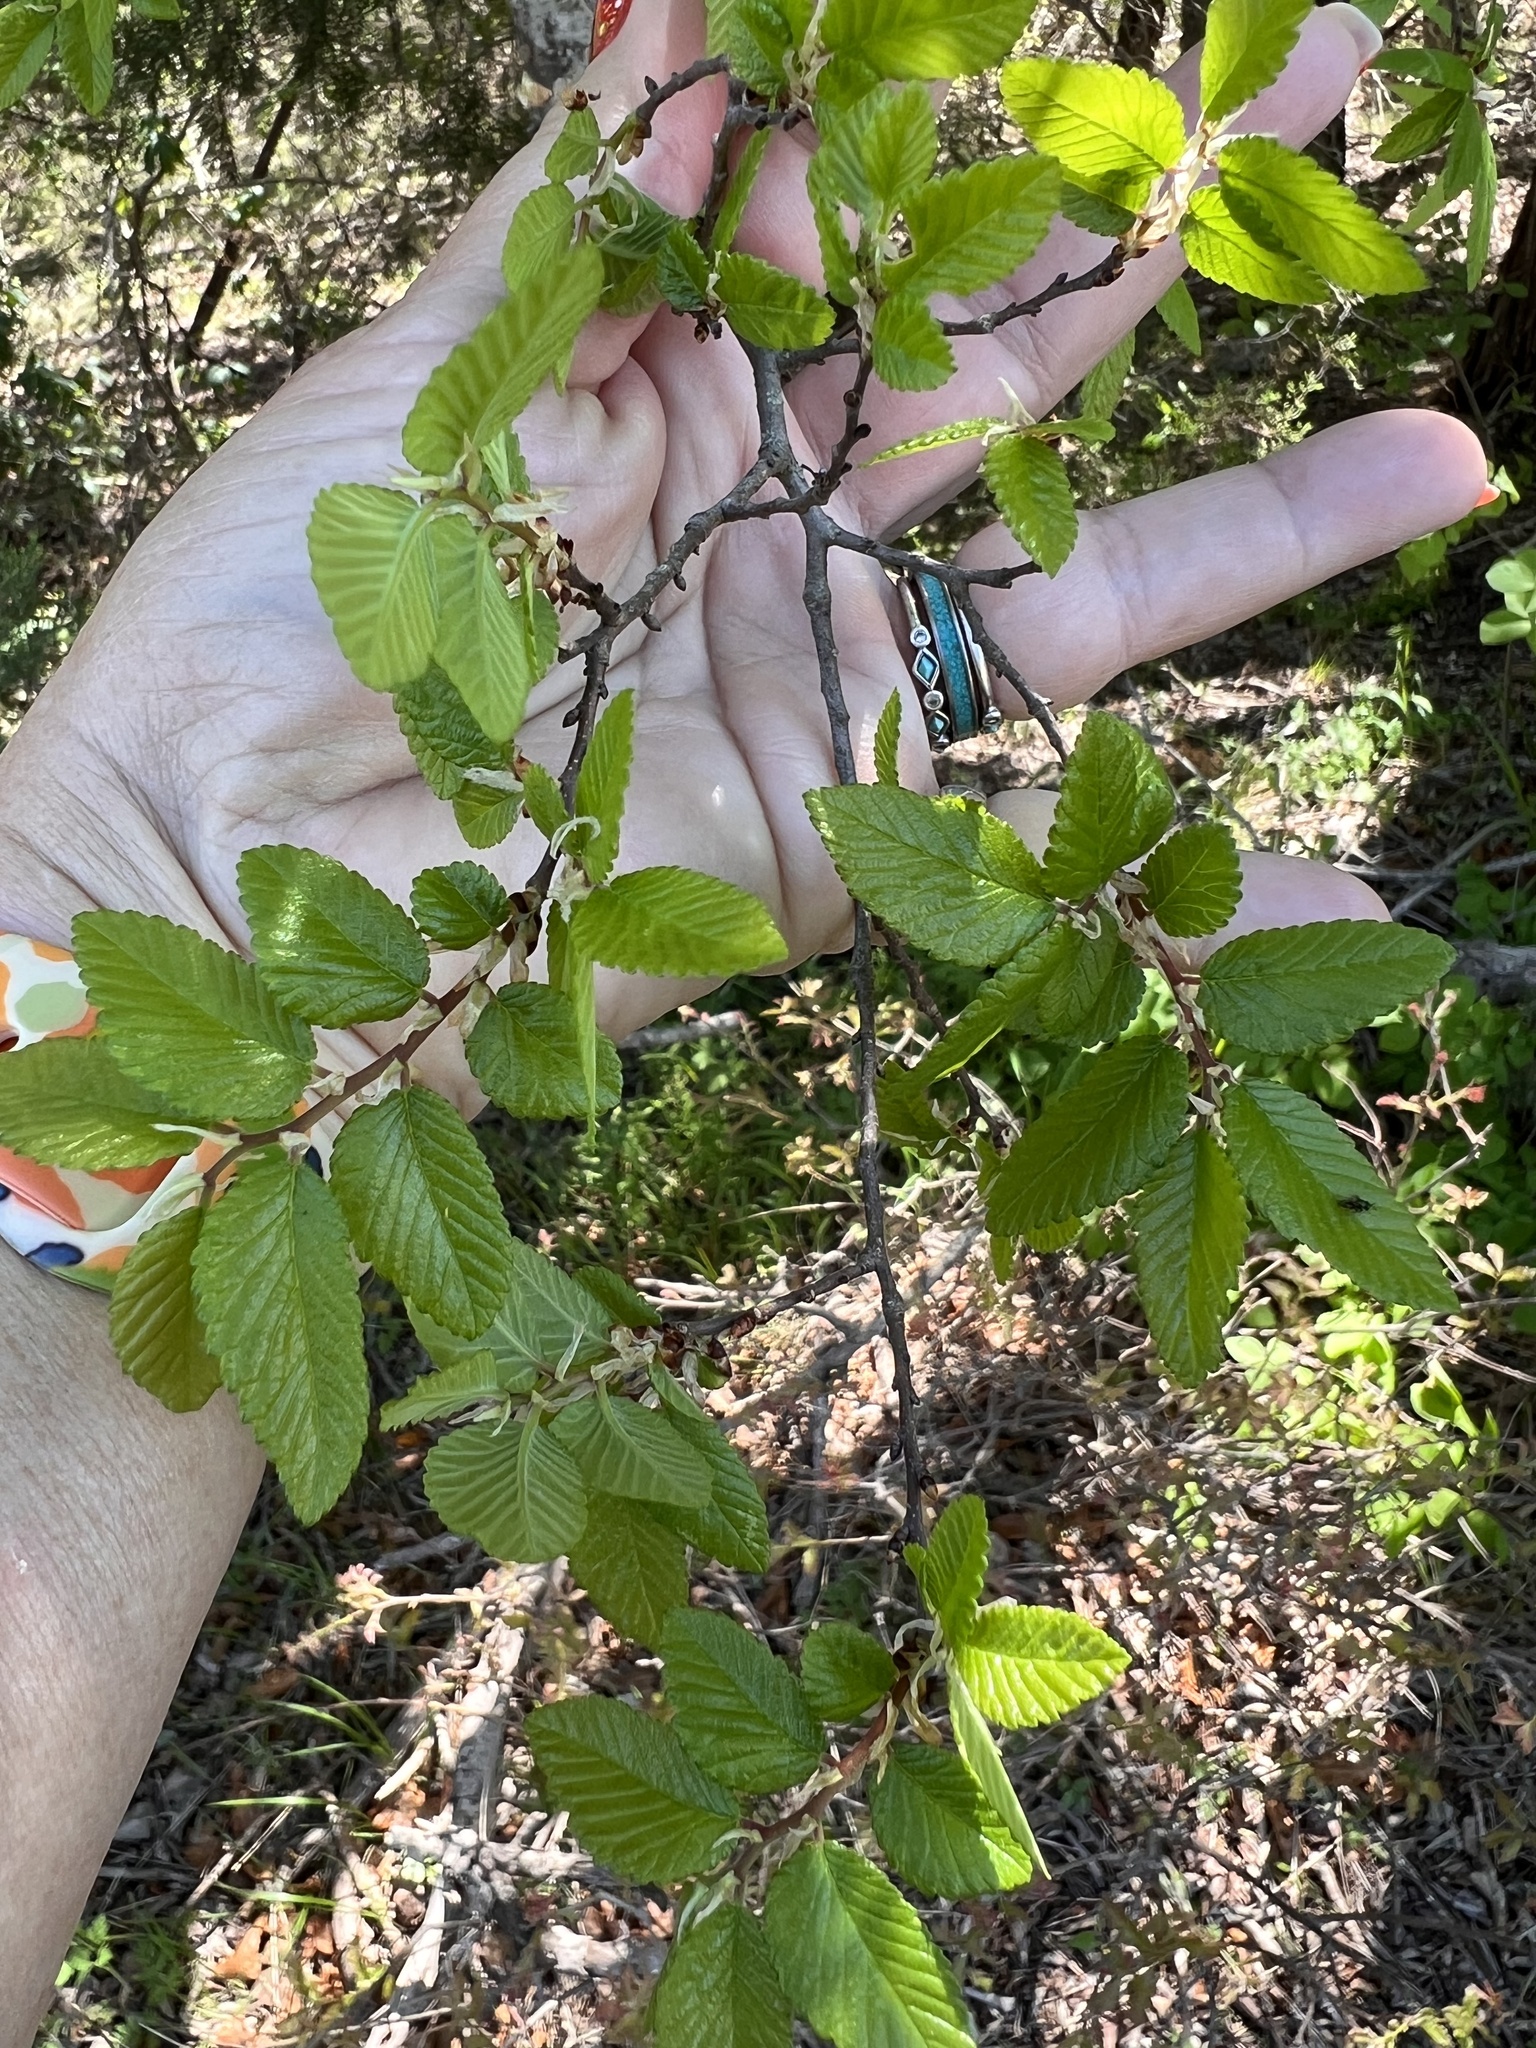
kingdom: Plantae
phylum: Tracheophyta
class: Magnoliopsida
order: Rosales
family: Ulmaceae
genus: Ulmus
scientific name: Ulmus crassifolia
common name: Basket elm
